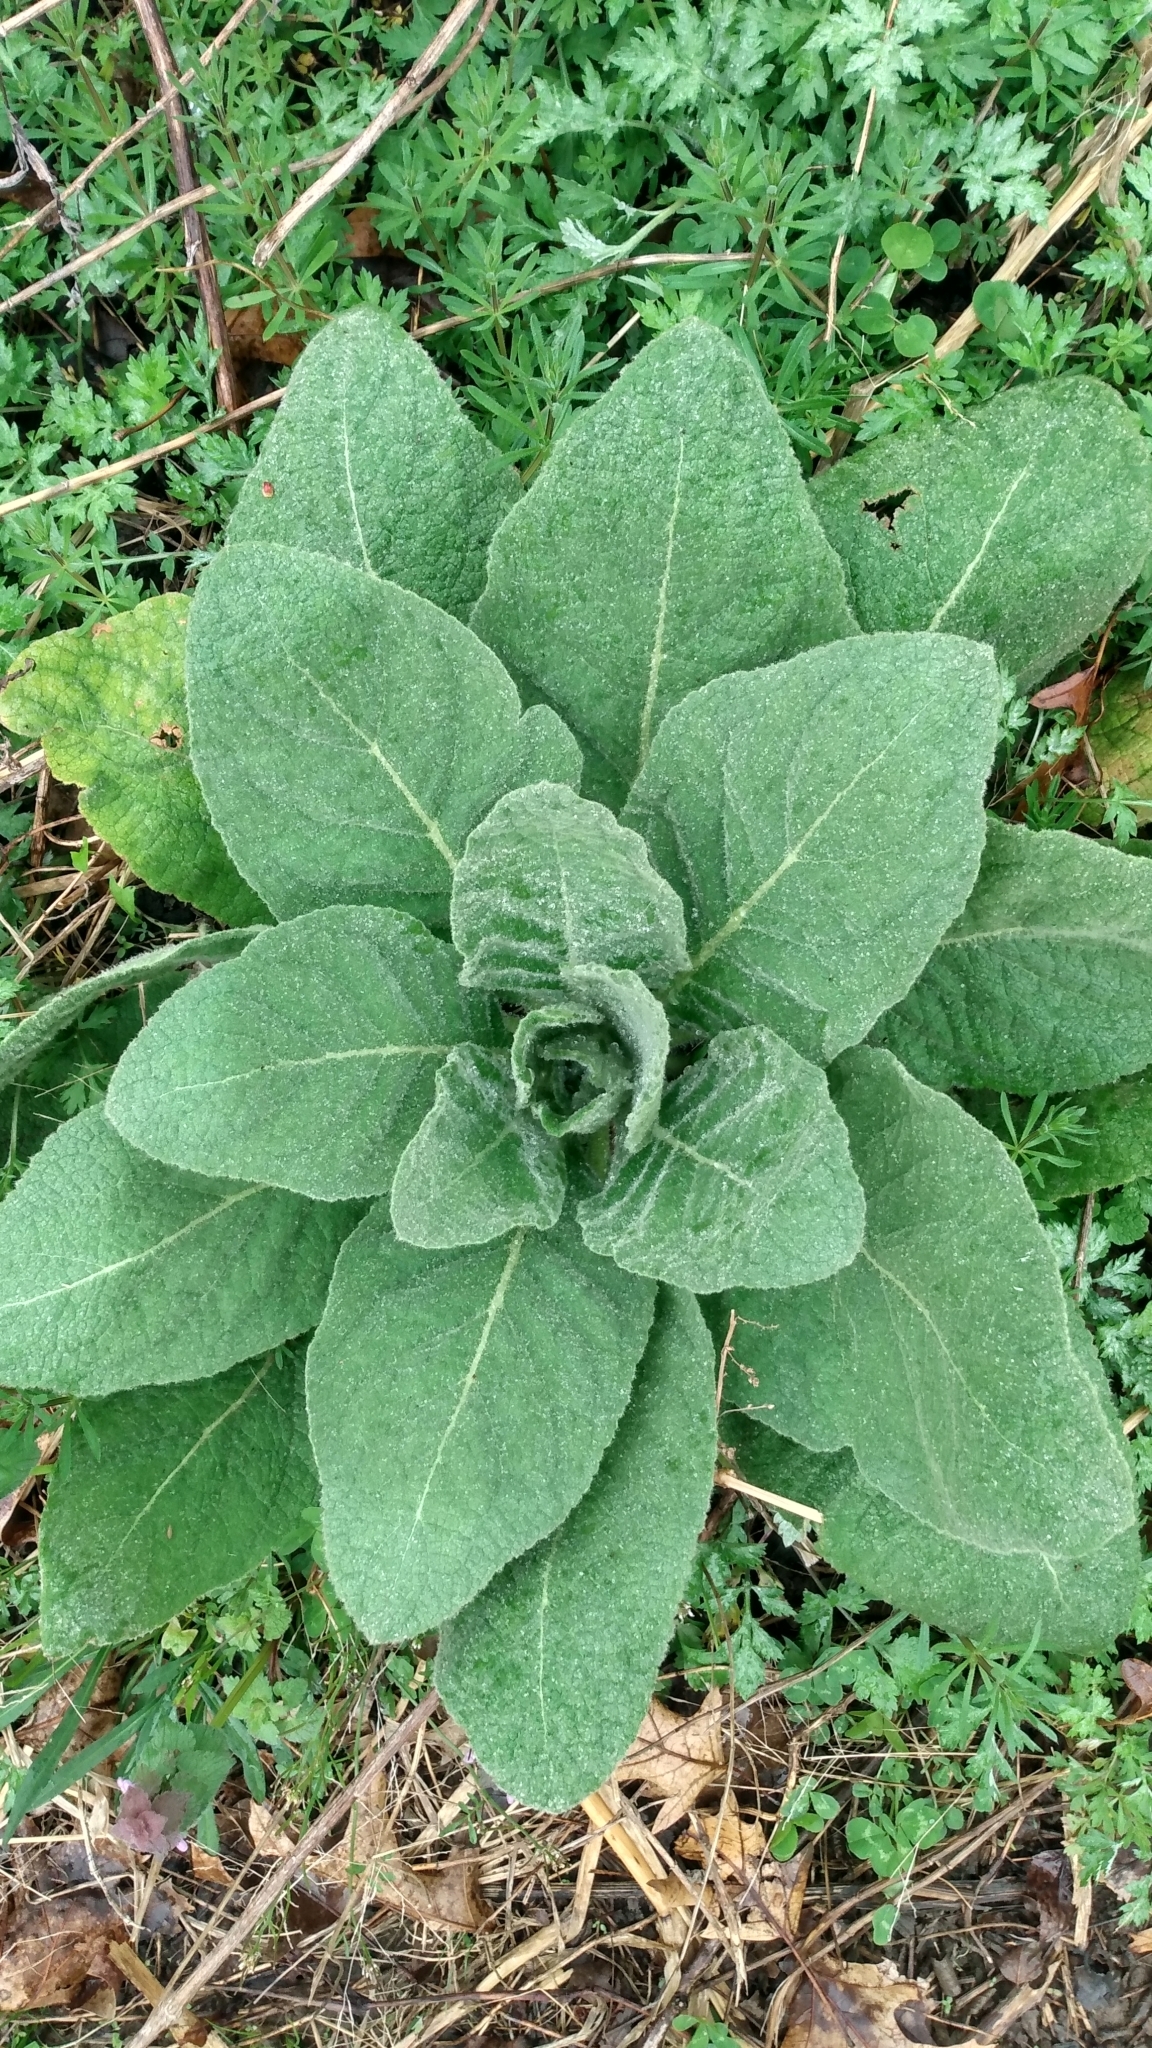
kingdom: Plantae
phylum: Tracheophyta
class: Magnoliopsida
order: Lamiales
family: Scrophulariaceae
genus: Verbascum
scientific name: Verbascum thapsus
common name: Common mullein
